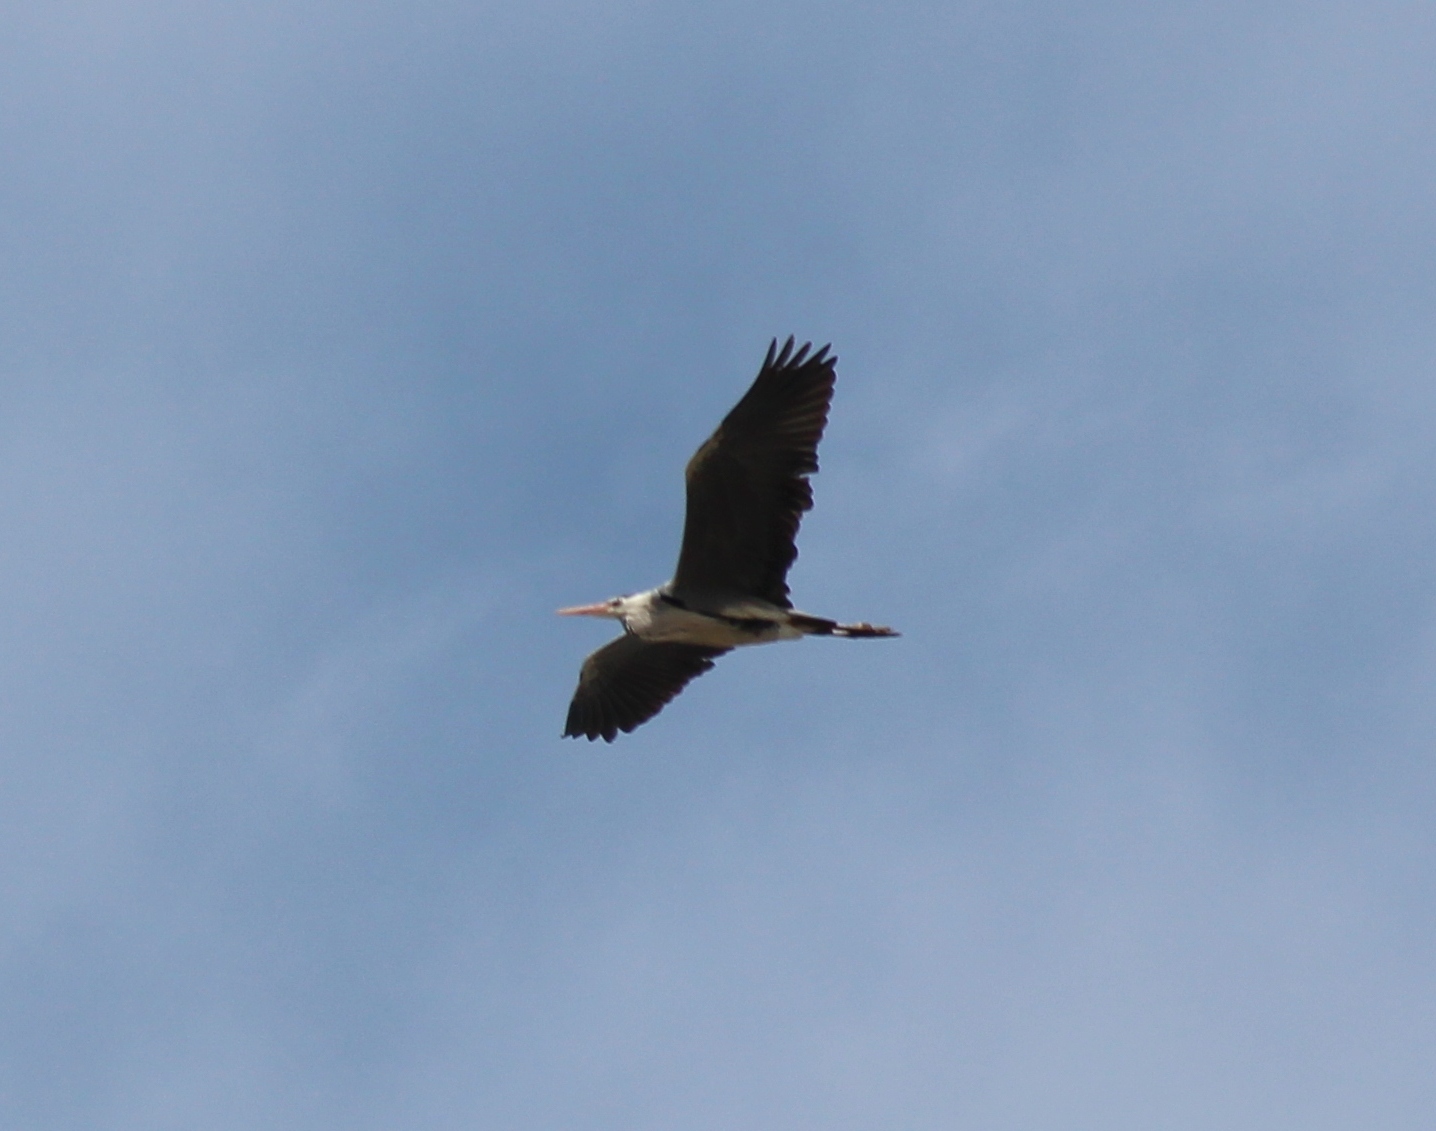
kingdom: Animalia
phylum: Chordata
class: Aves
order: Pelecaniformes
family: Ardeidae
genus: Ardea
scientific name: Ardea cinerea
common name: Grey heron
